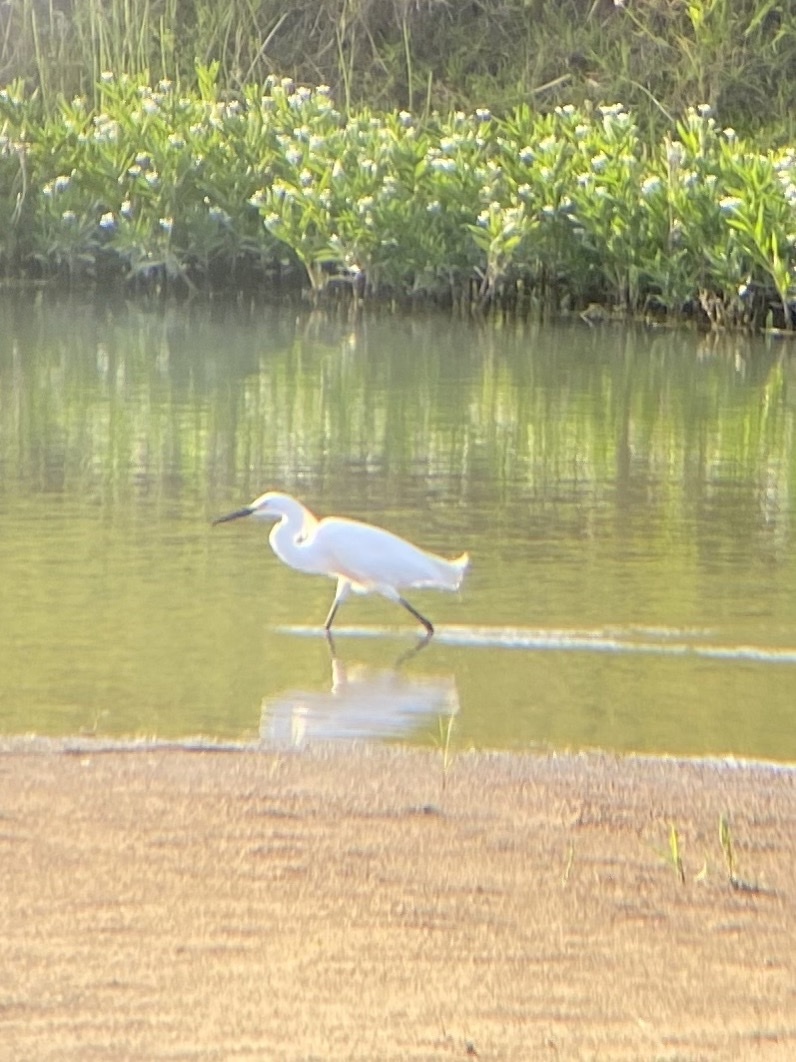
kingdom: Animalia
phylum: Chordata
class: Aves
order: Pelecaniformes
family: Ardeidae
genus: Egretta
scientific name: Egretta thula
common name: Snowy egret
